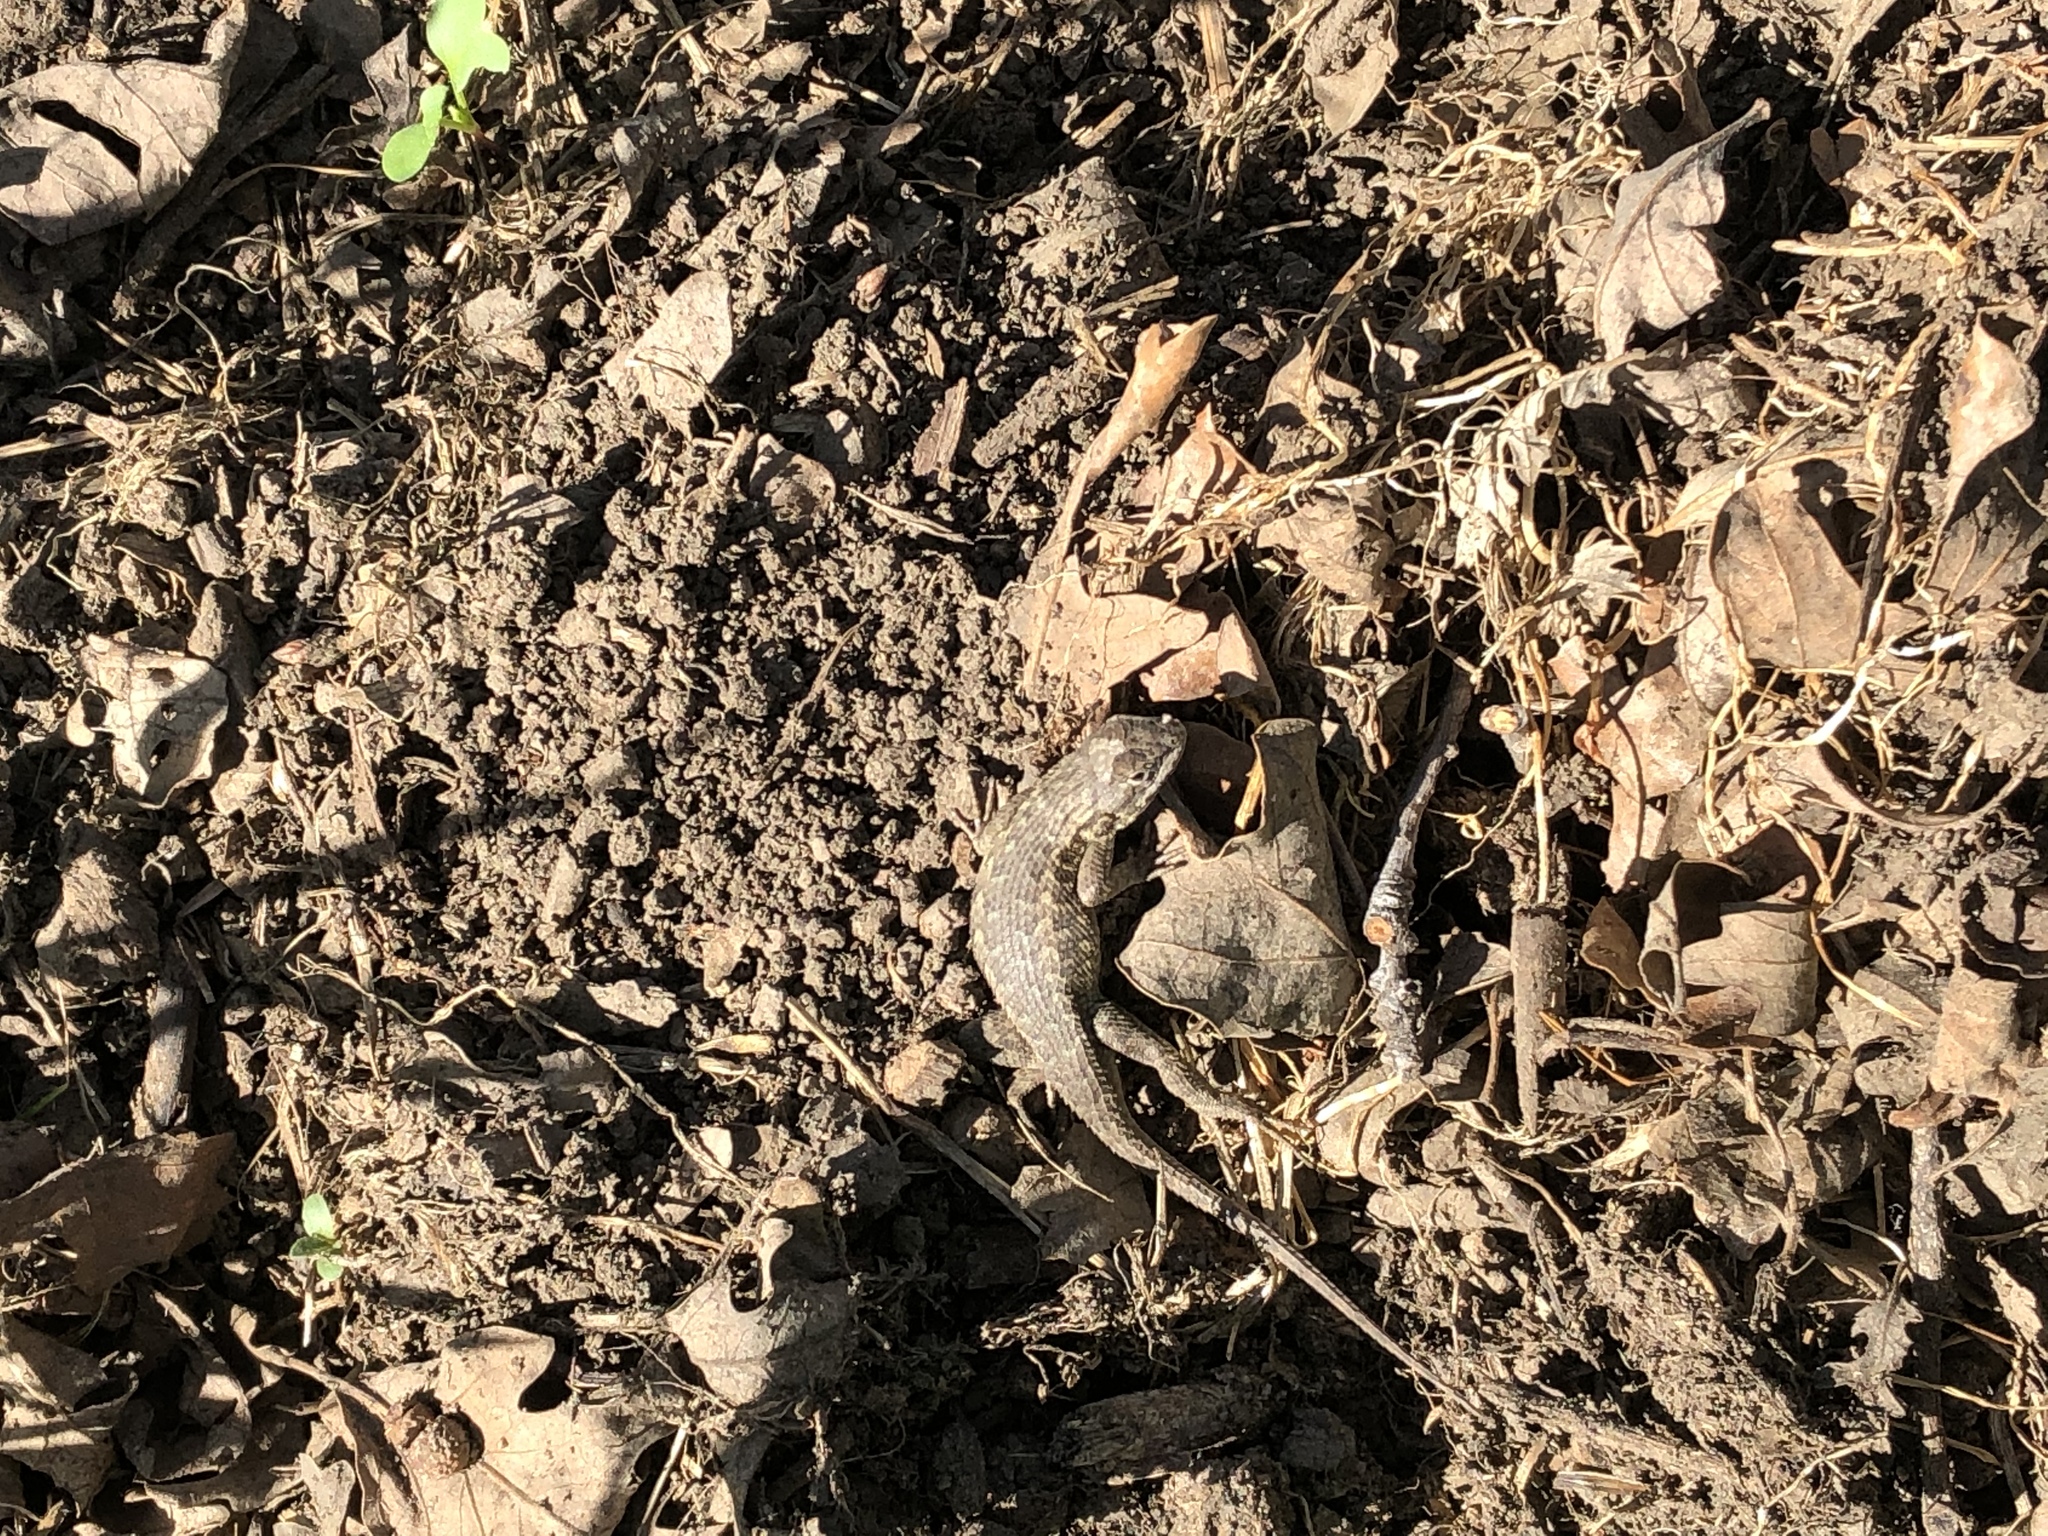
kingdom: Animalia
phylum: Chordata
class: Squamata
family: Phrynosomatidae
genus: Sceloporus
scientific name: Sceloporus occidentalis
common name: Western fence lizard
